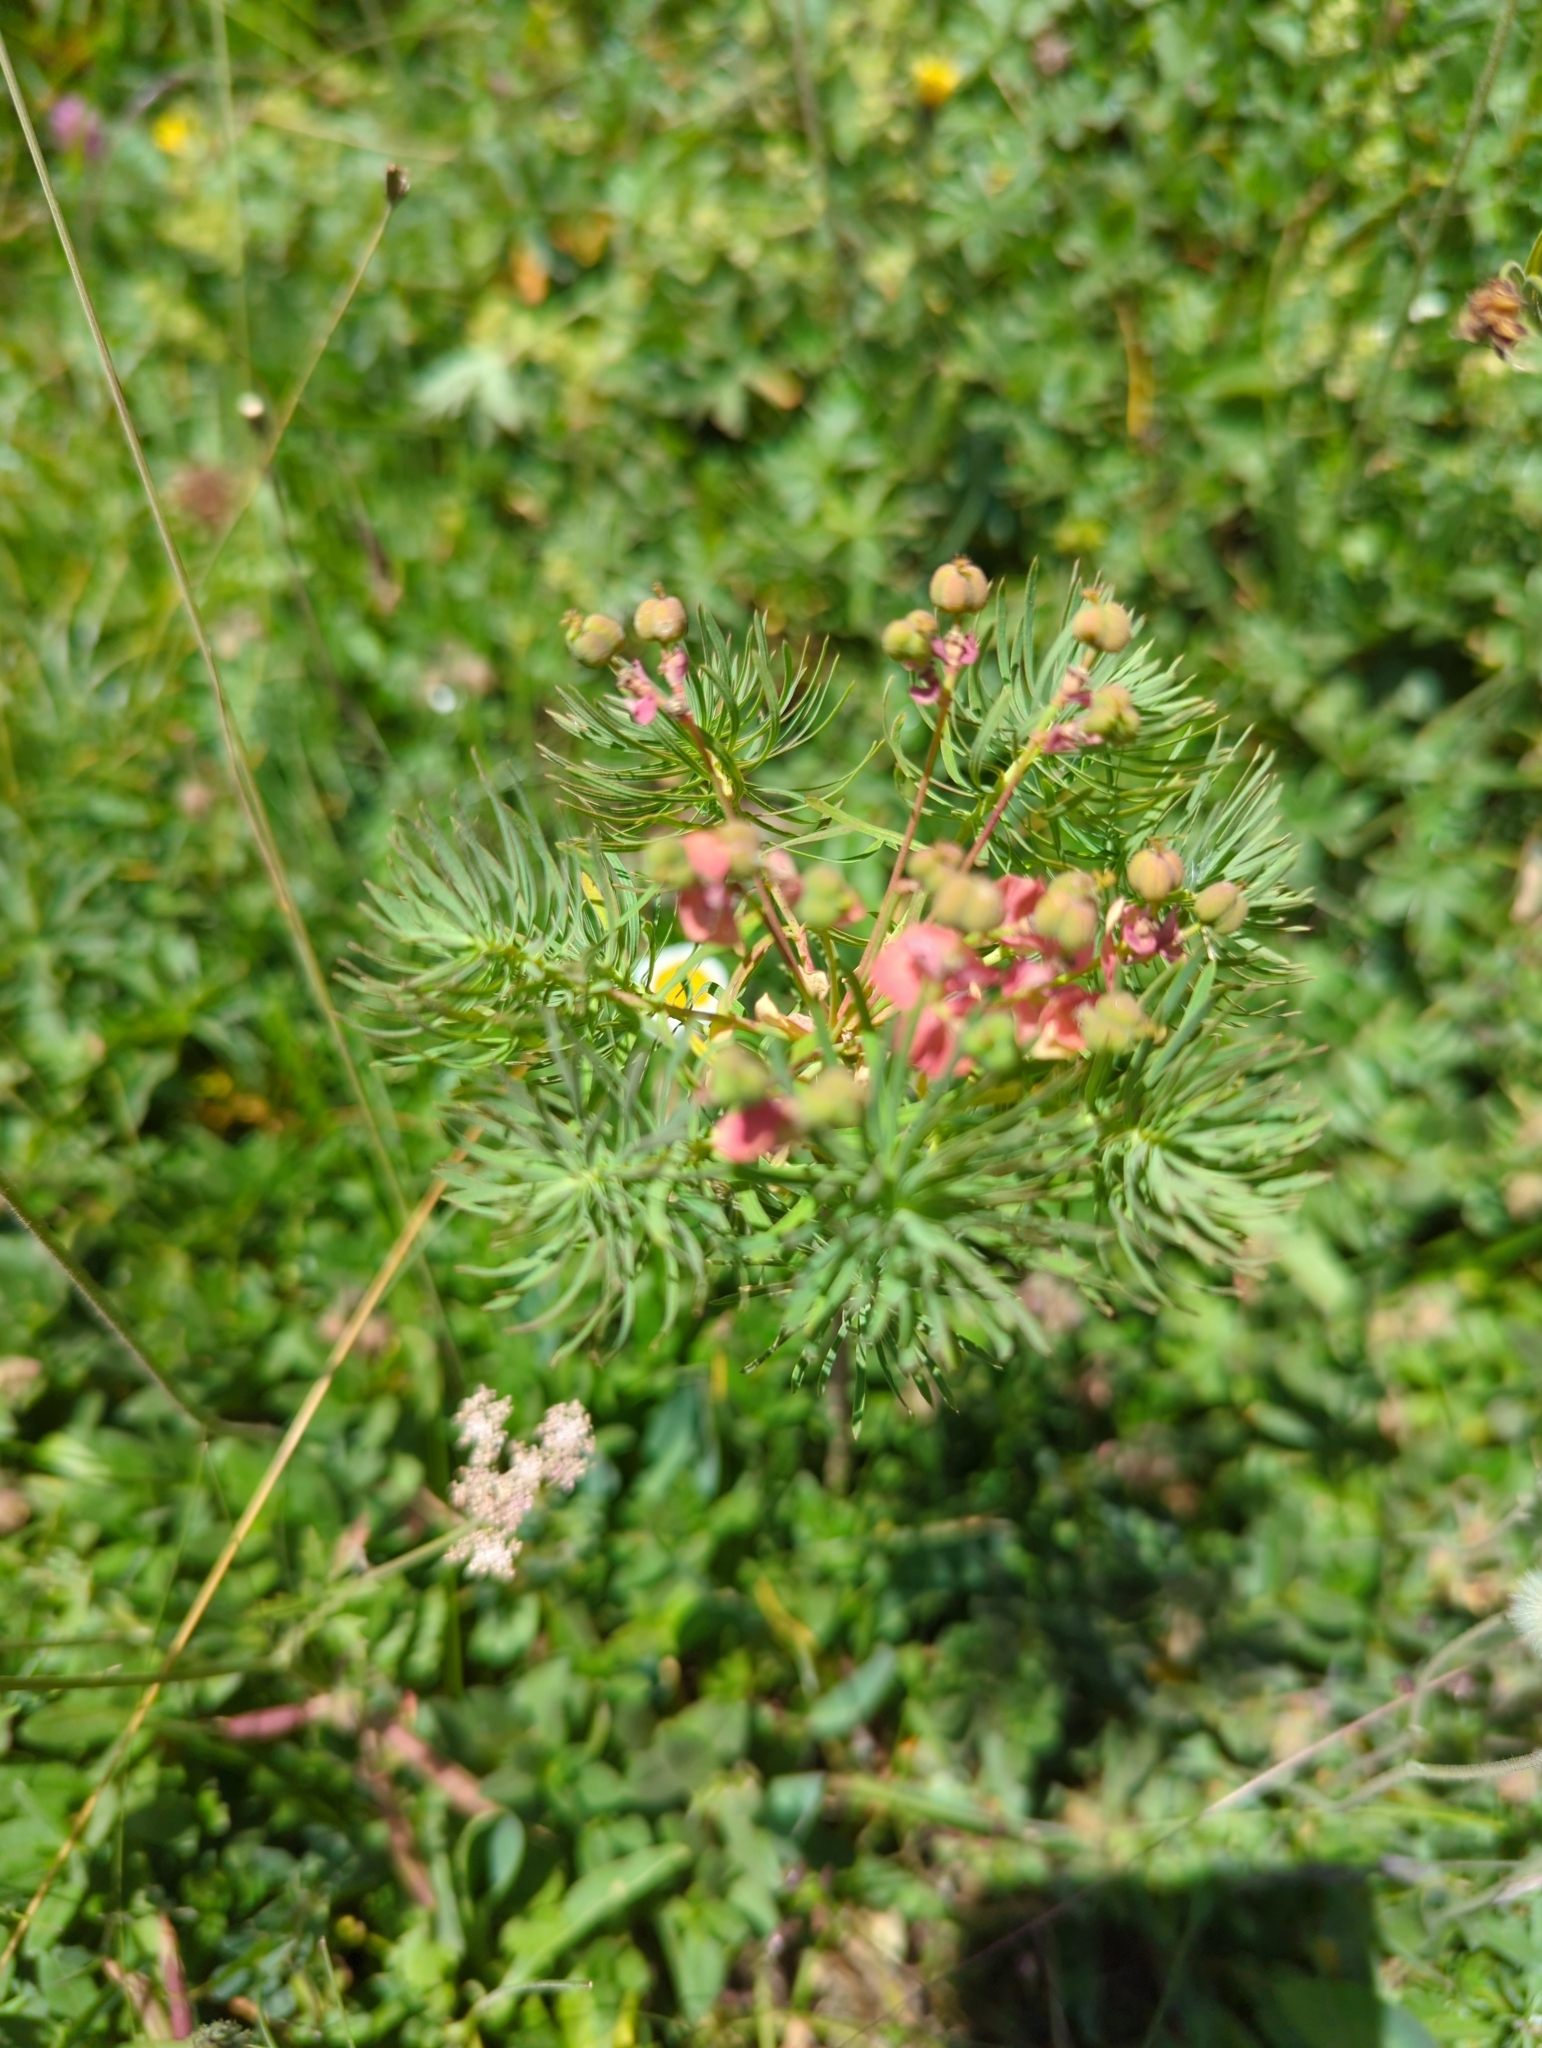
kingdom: Plantae
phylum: Tracheophyta
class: Magnoliopsida
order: Malpighiales
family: Euphorbiaceae
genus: Euphorbia
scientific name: Euphorbia cyparissias
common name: Cypress spurge
